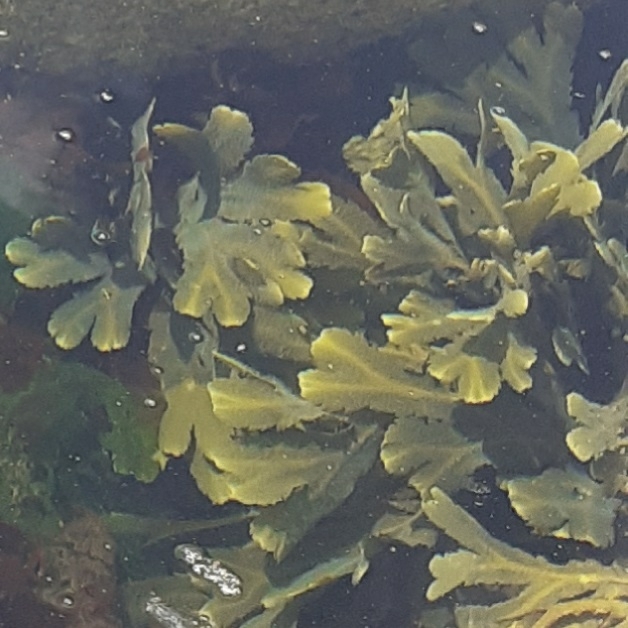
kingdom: Chromista
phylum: Ochrophyta
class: Phaeophyceae
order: Fucales
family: Fucaceae
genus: Fucus
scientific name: Fucus serratus
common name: Toothed wrack
